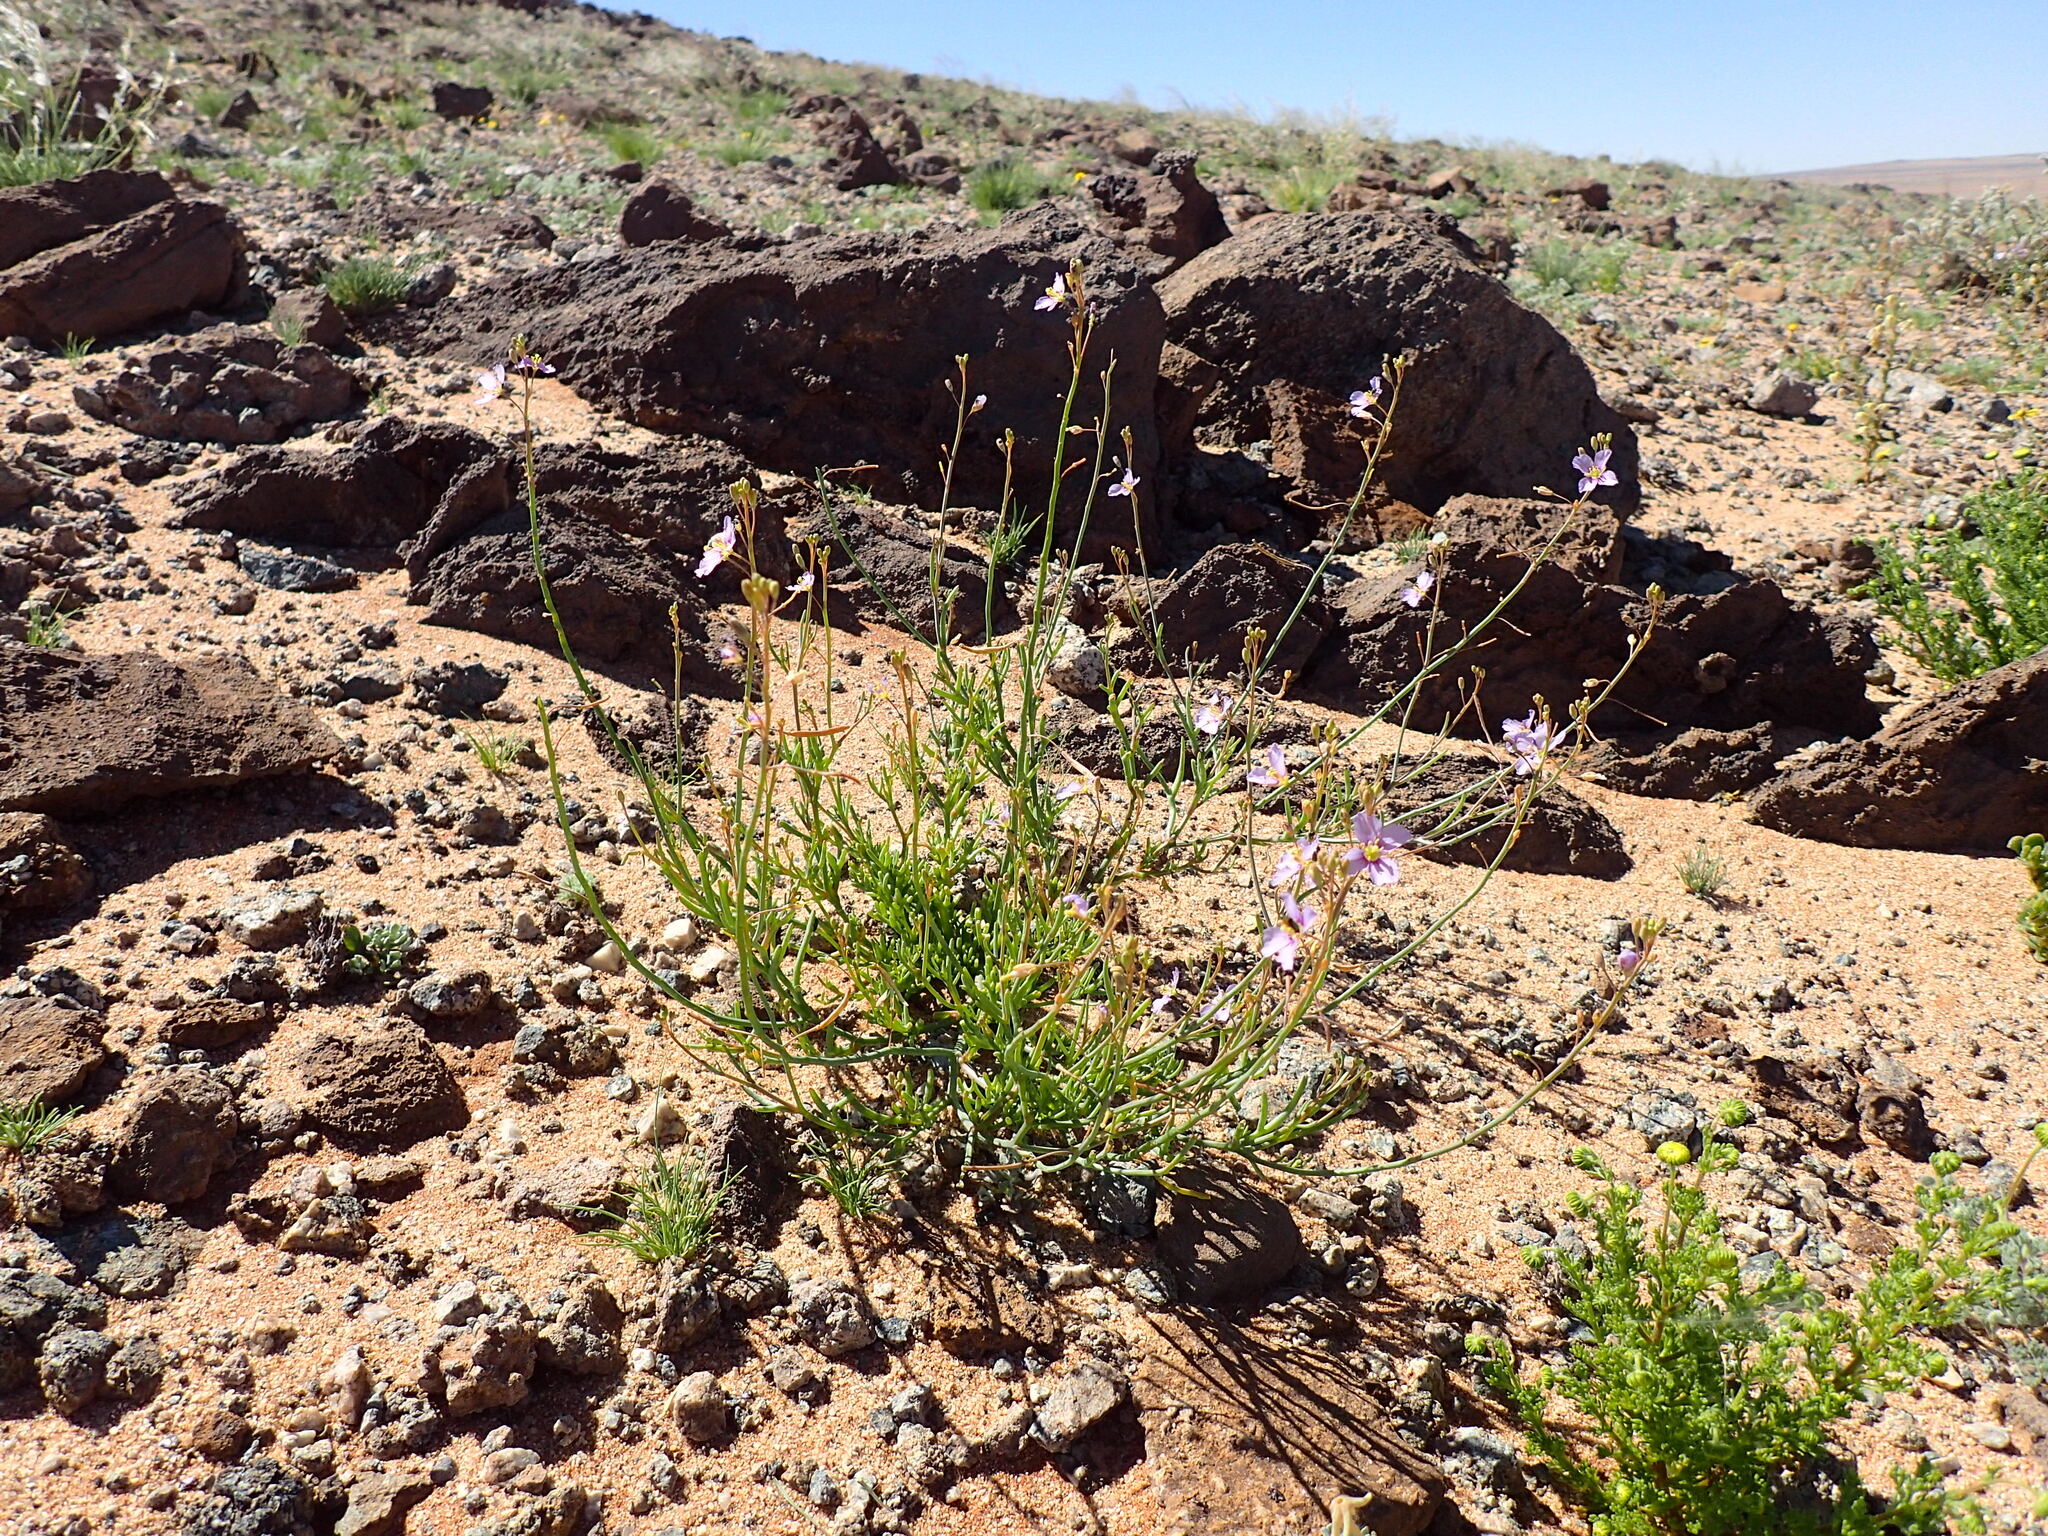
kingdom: Plantae
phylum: Tracheophyta
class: Magnoliopsida
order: Brassicales
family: Brassicaceae
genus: Heliophila
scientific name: Heliophila deserticola
